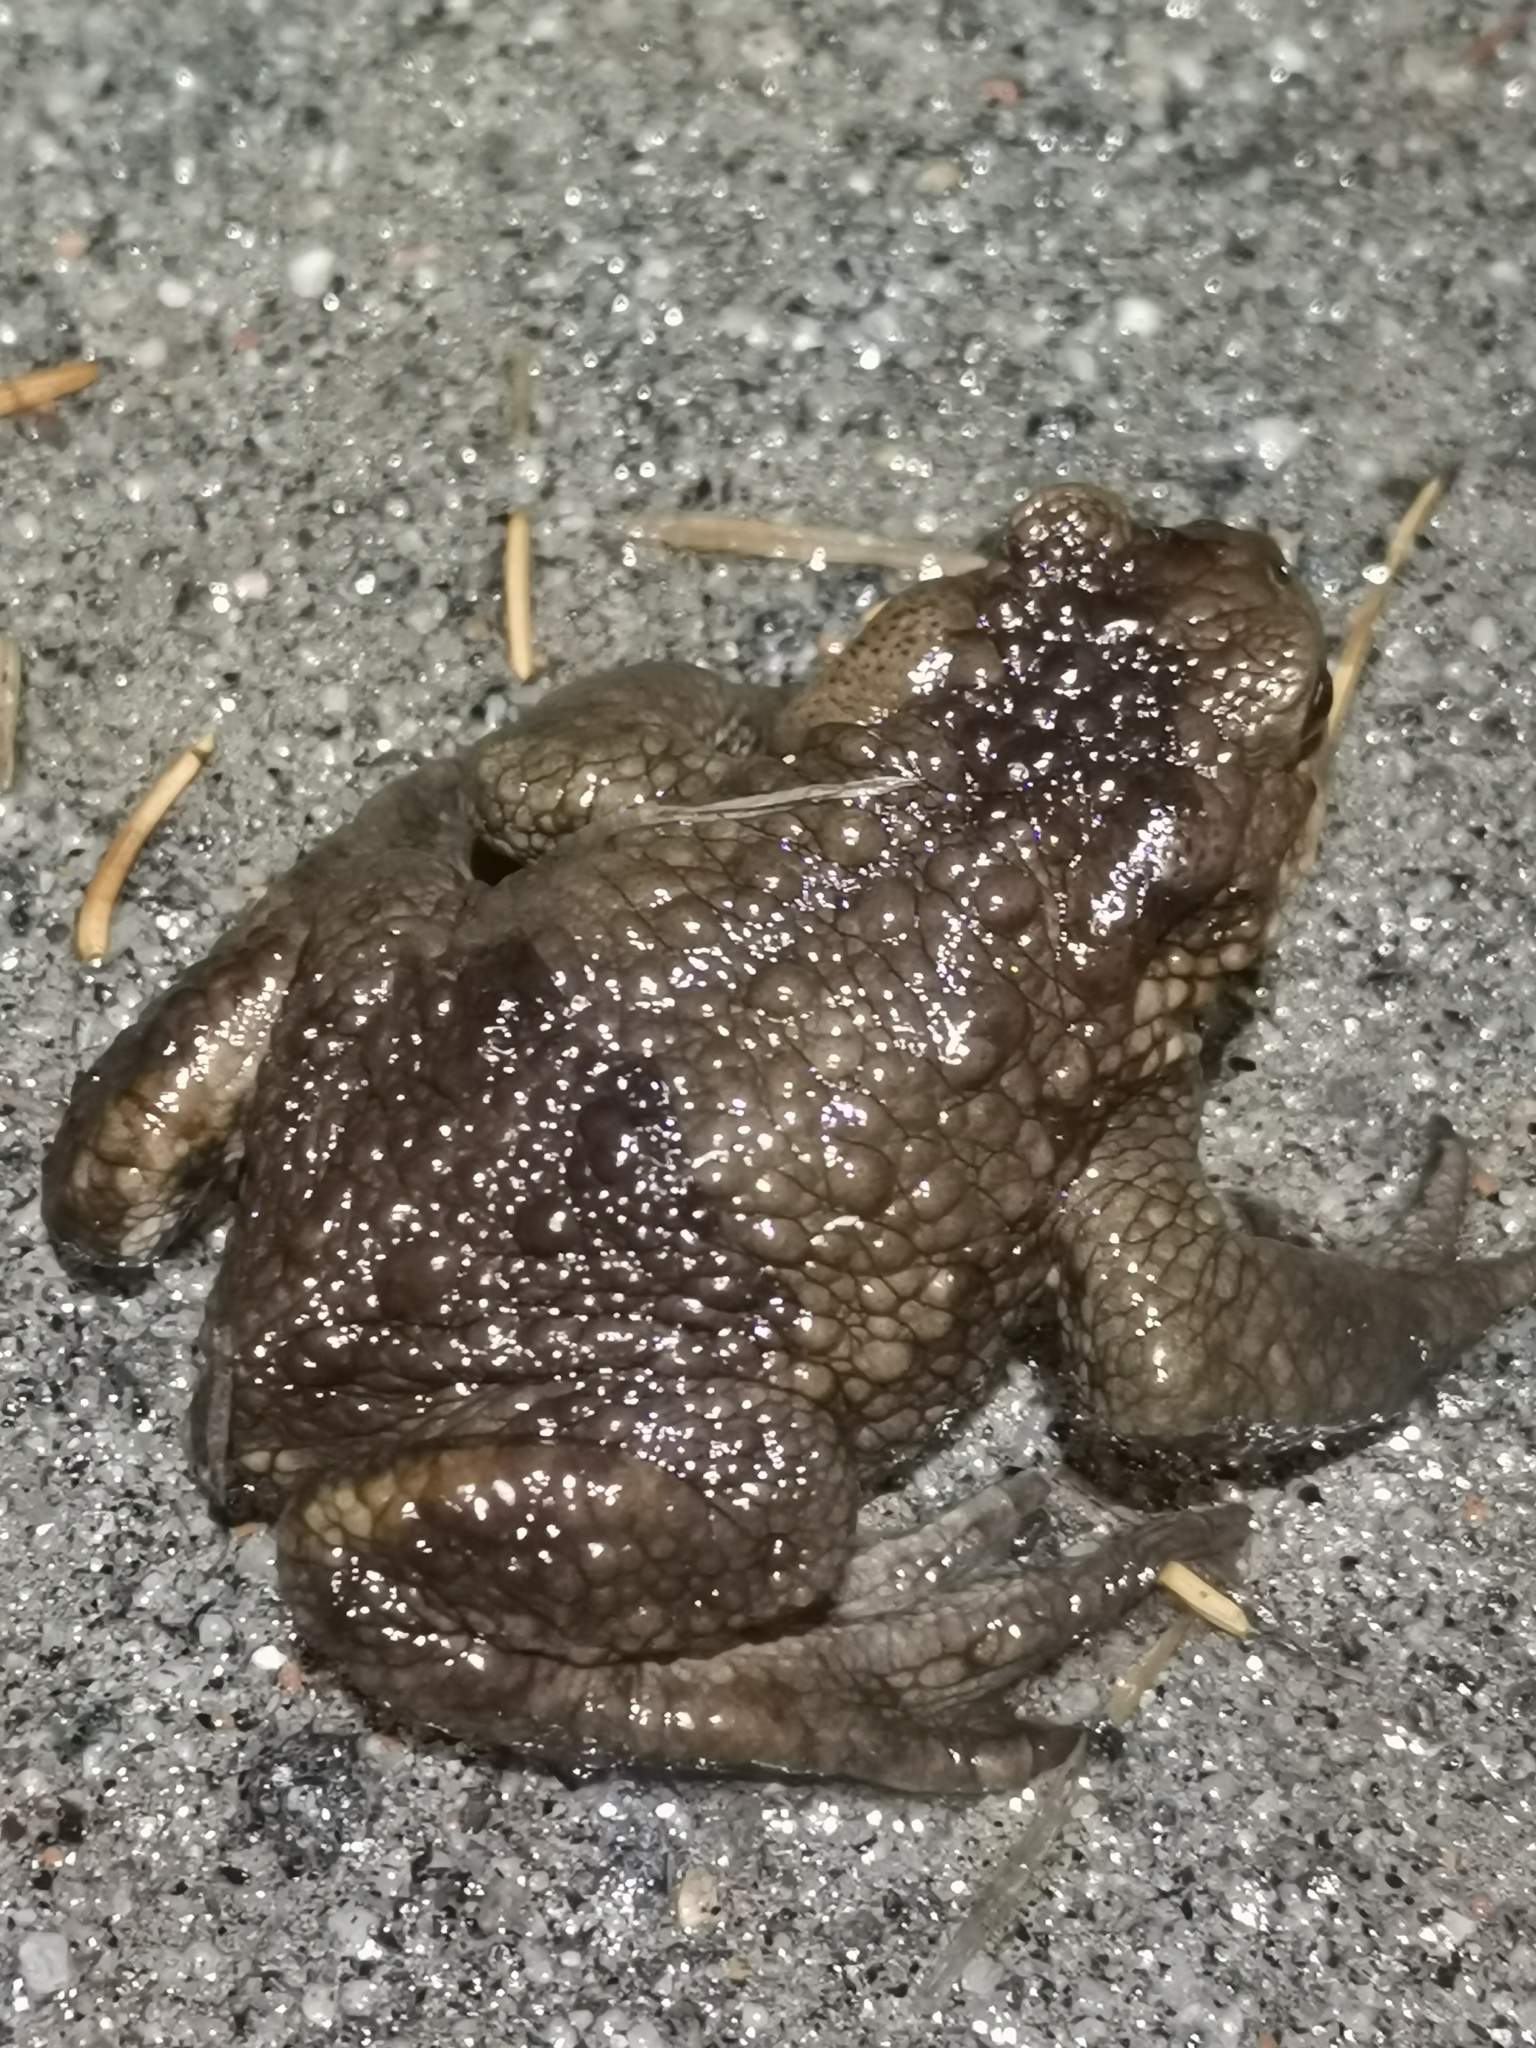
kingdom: Animalia
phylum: Chordata
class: Amphibia
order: Anura
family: Bufonidae
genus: Bufo
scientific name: Bufo bufo
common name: Common toad
